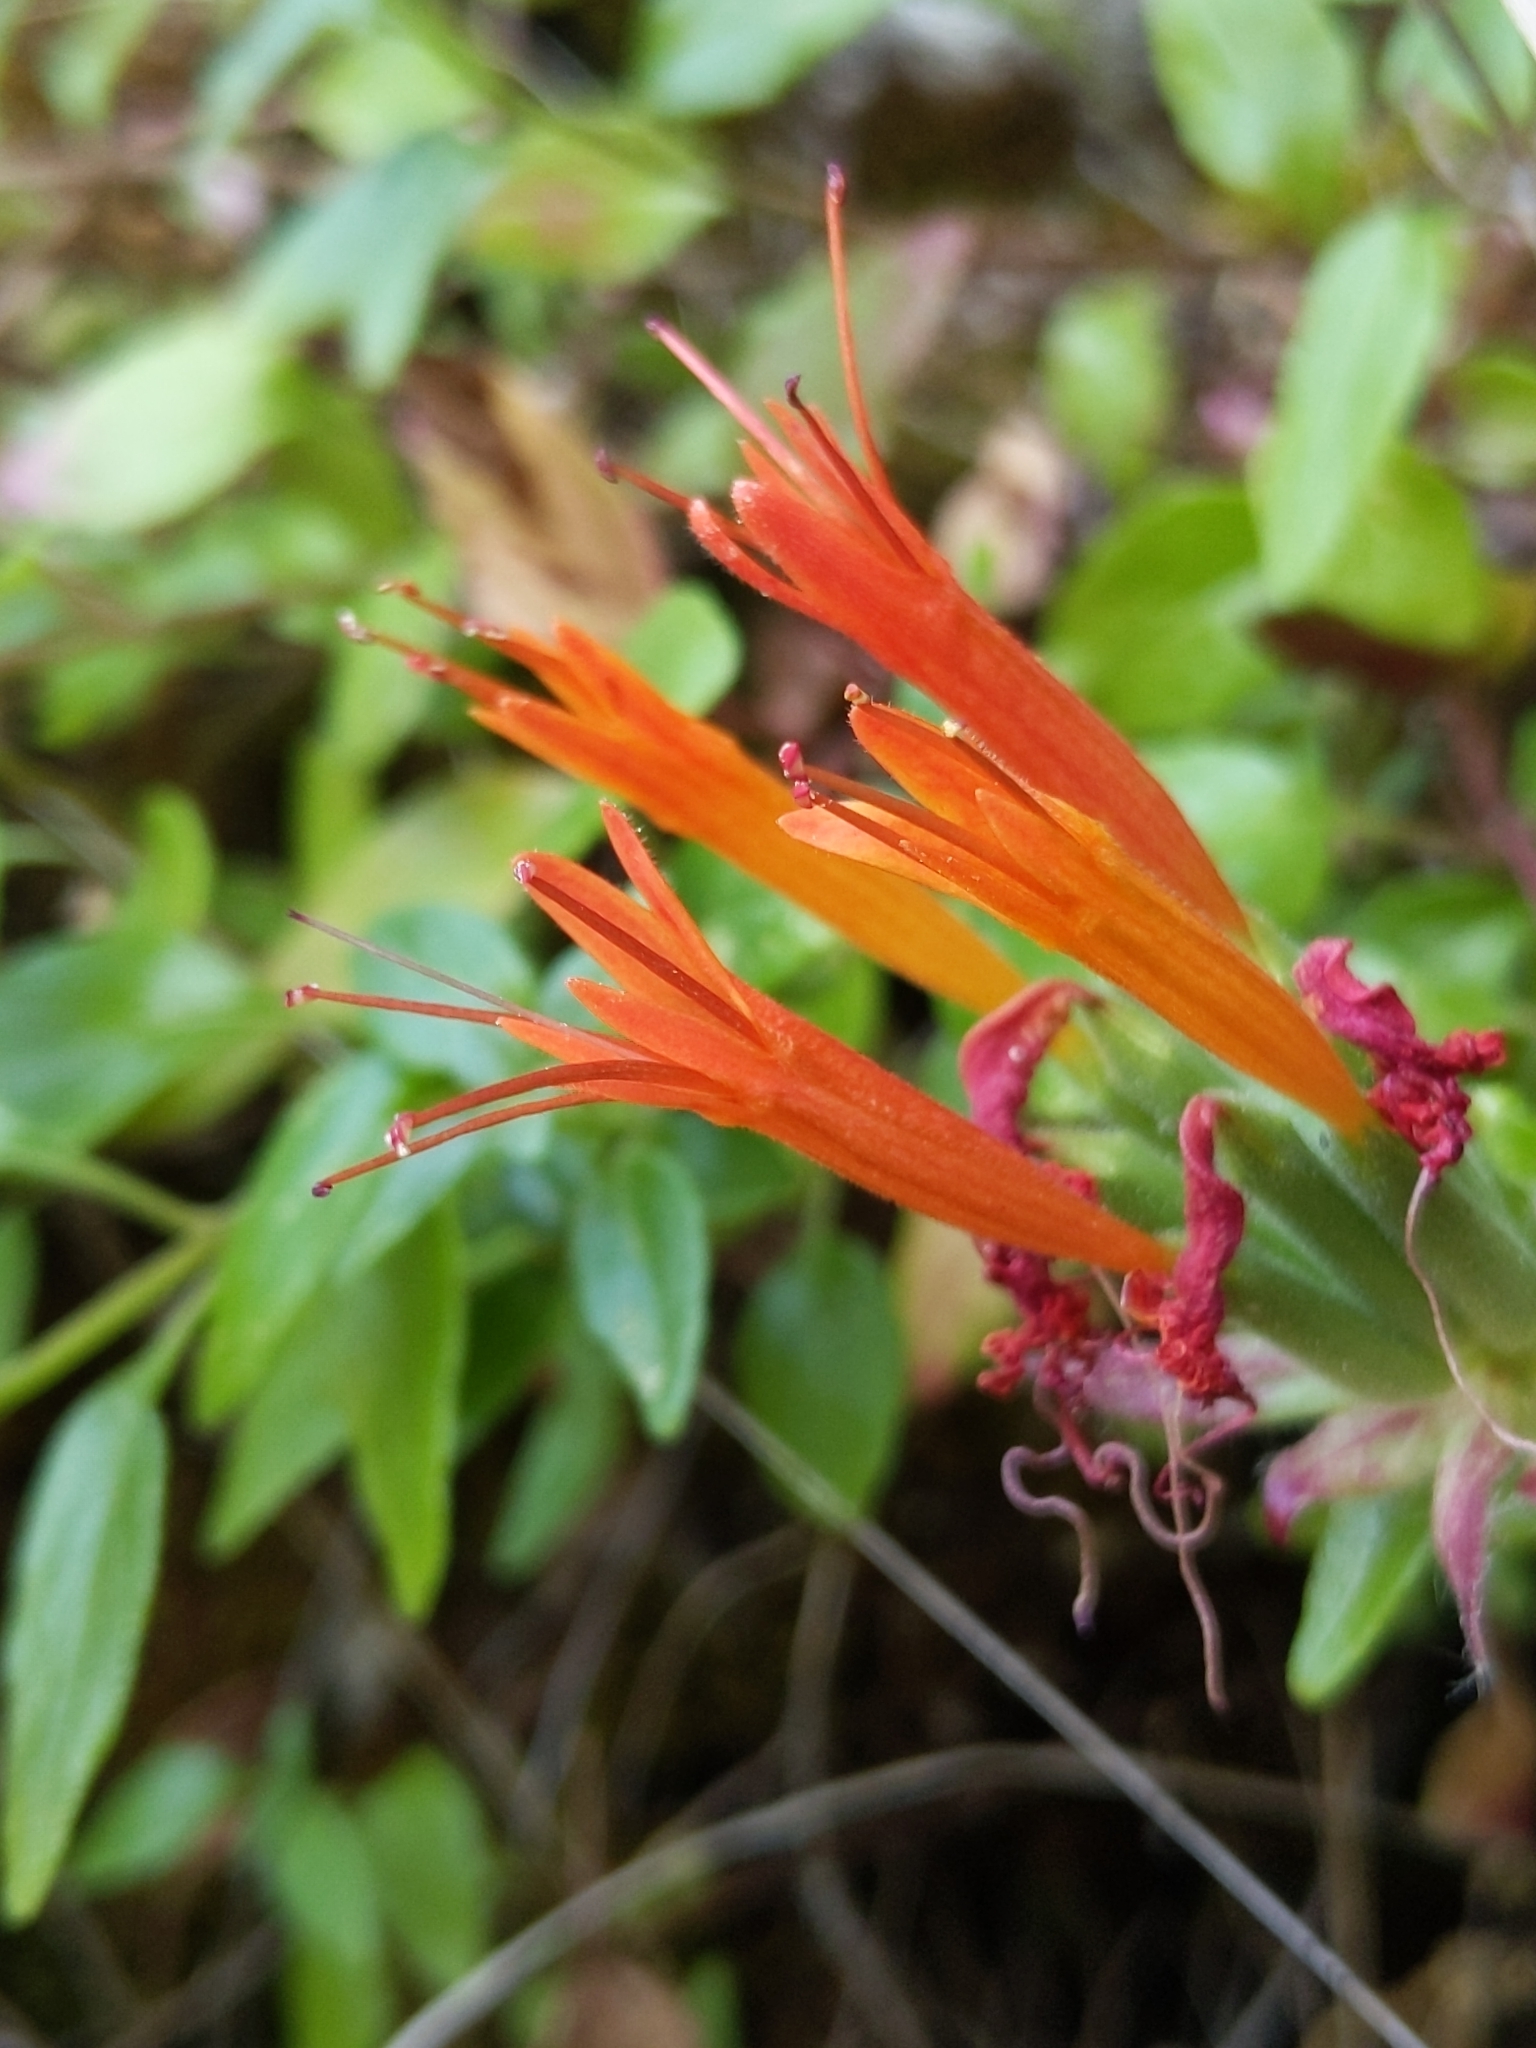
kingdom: Plantae
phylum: Tracheophyta
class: Magnoliopsida
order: Lamiales
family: Lamiaceae
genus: Monardella
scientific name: Monardella macrantha
